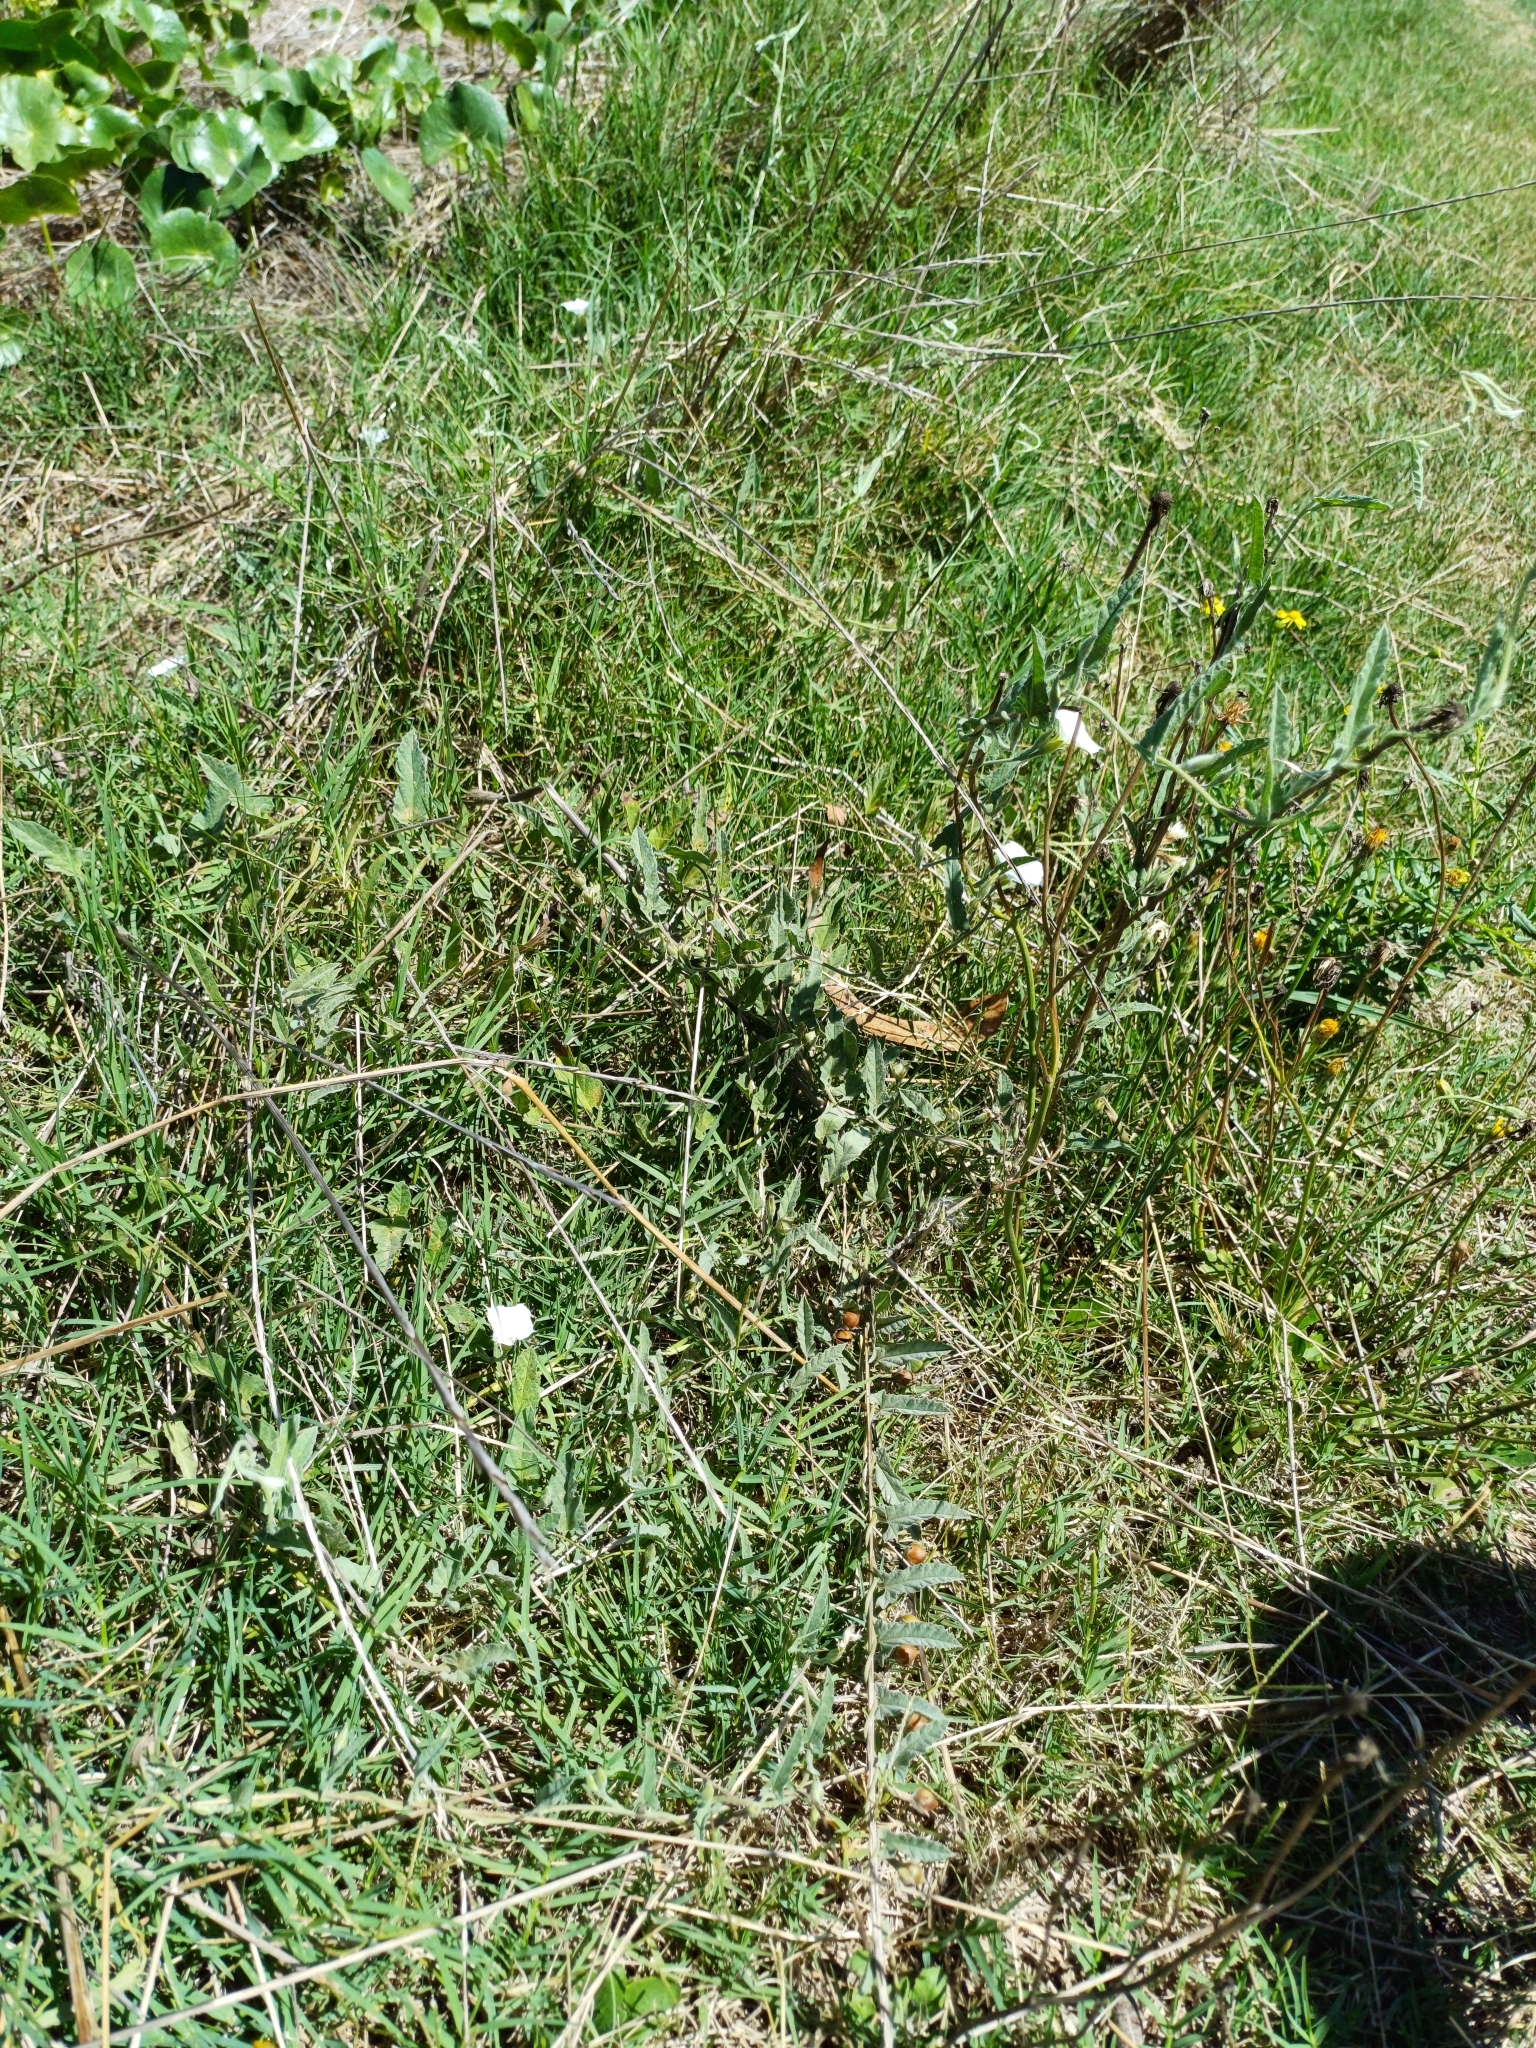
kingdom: Plantae
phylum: Tracheophyta
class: Magnoliopsida
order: Solanales
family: Convolvulaceae
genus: Convolvulus
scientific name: Convolvulus hermanniae
